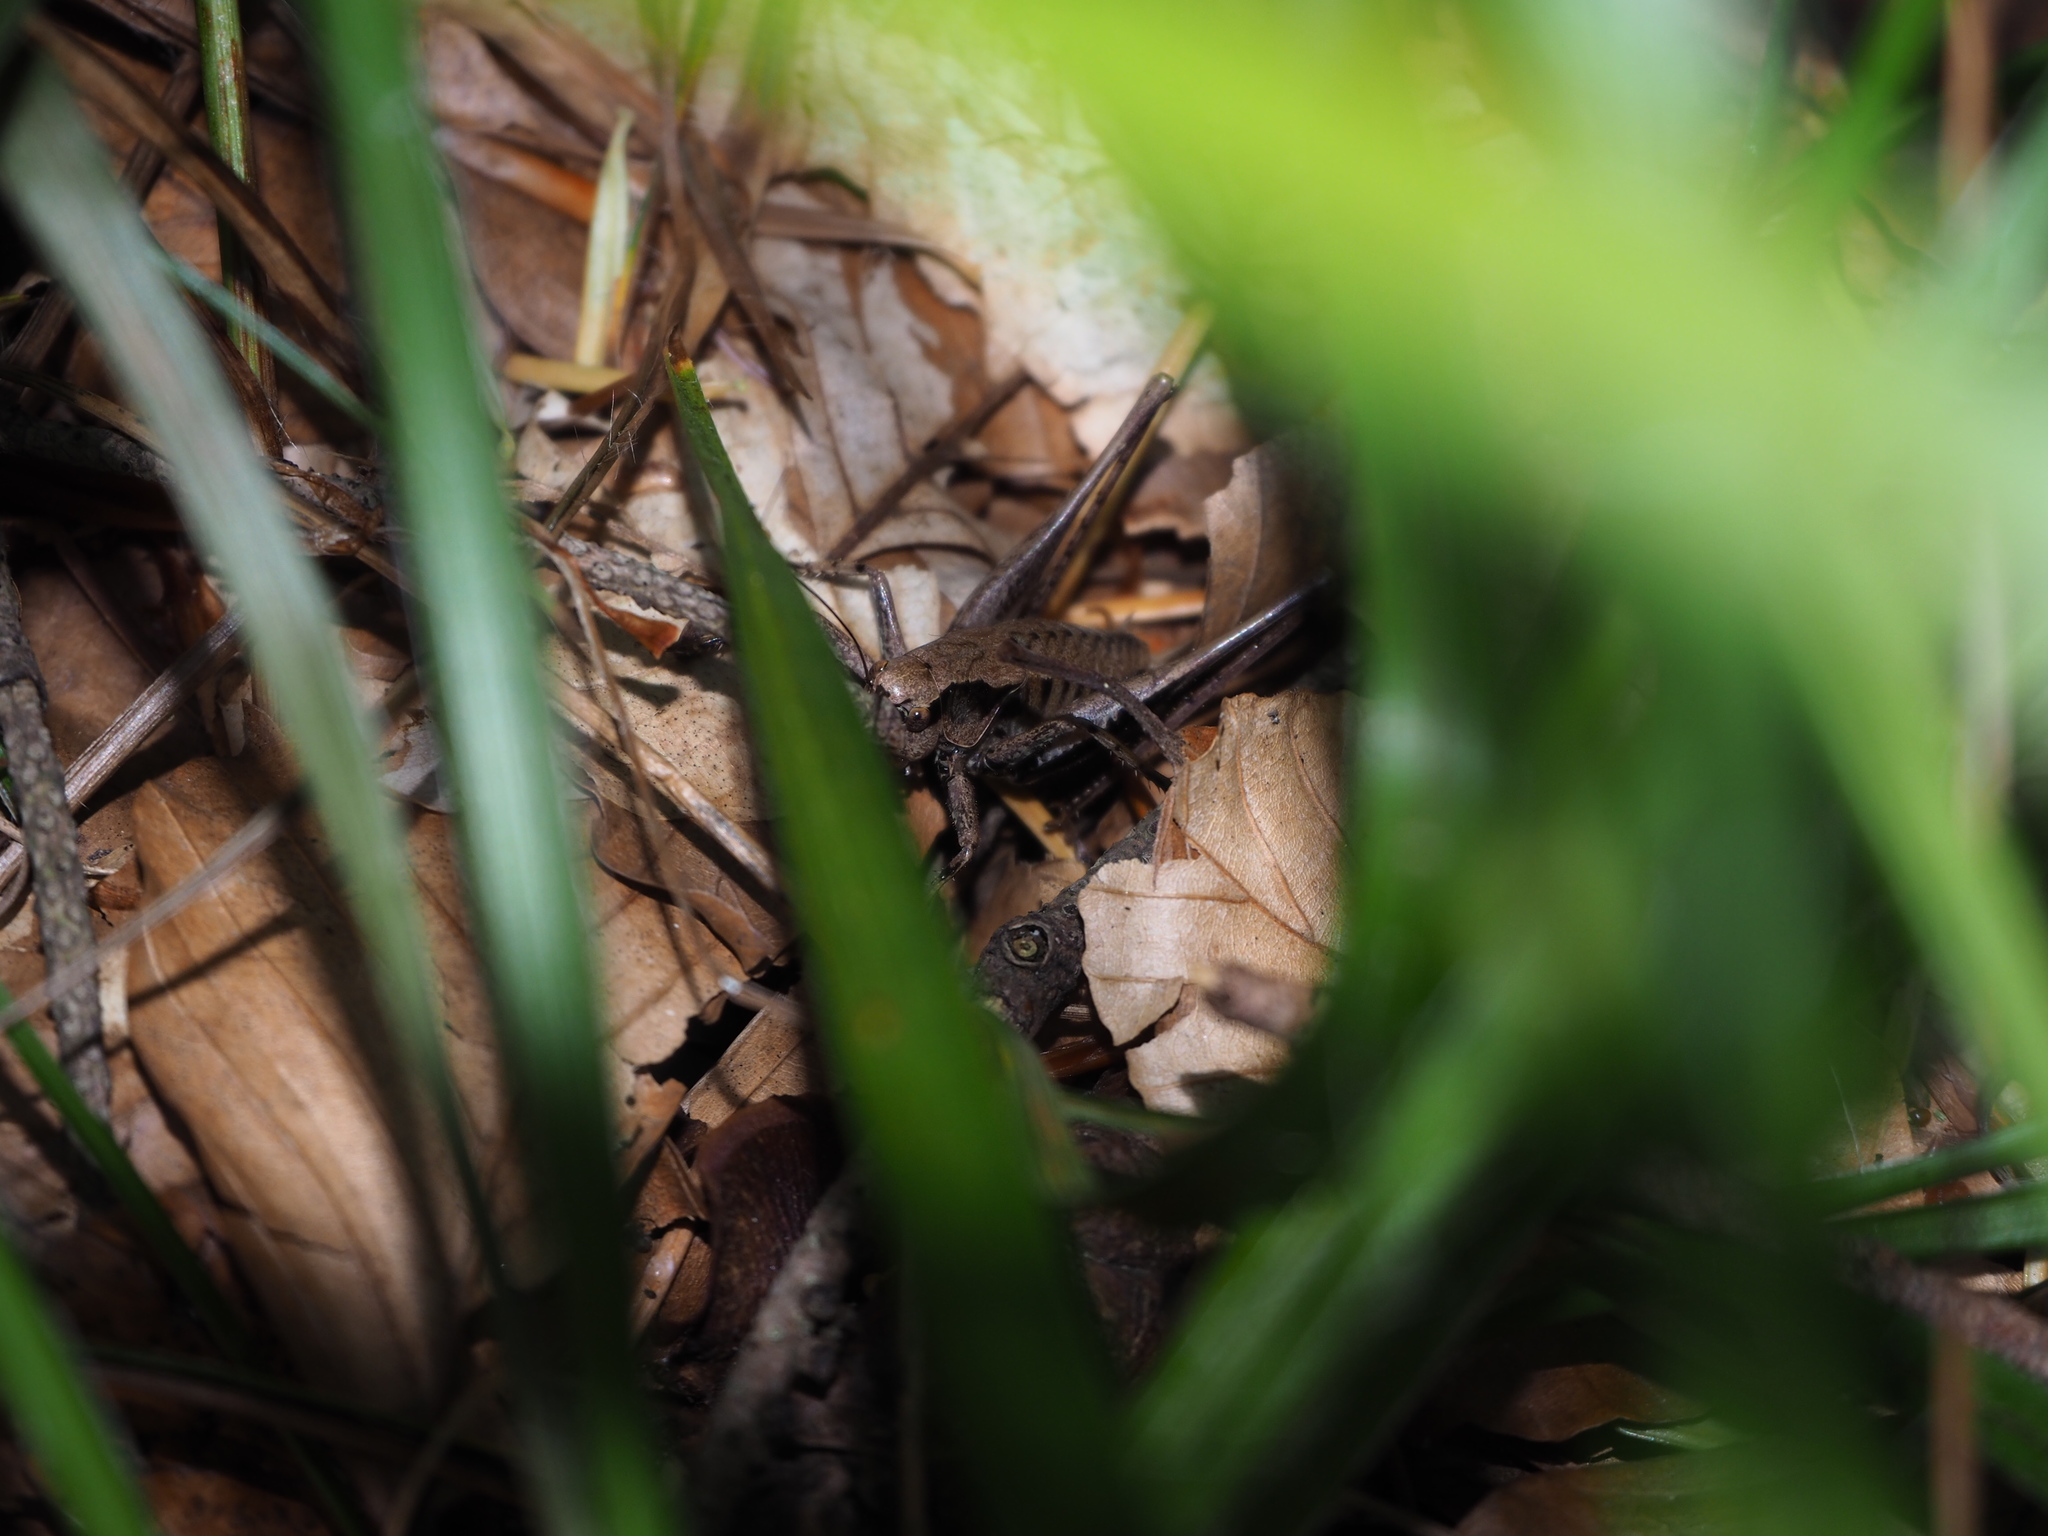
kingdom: Animalia
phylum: Arthropoda
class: Insecta
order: Orthoptera
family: Tettigoniidae
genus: Pholidoptera
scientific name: Pholidoptera griseoaptera
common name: Dark bush-cricket
